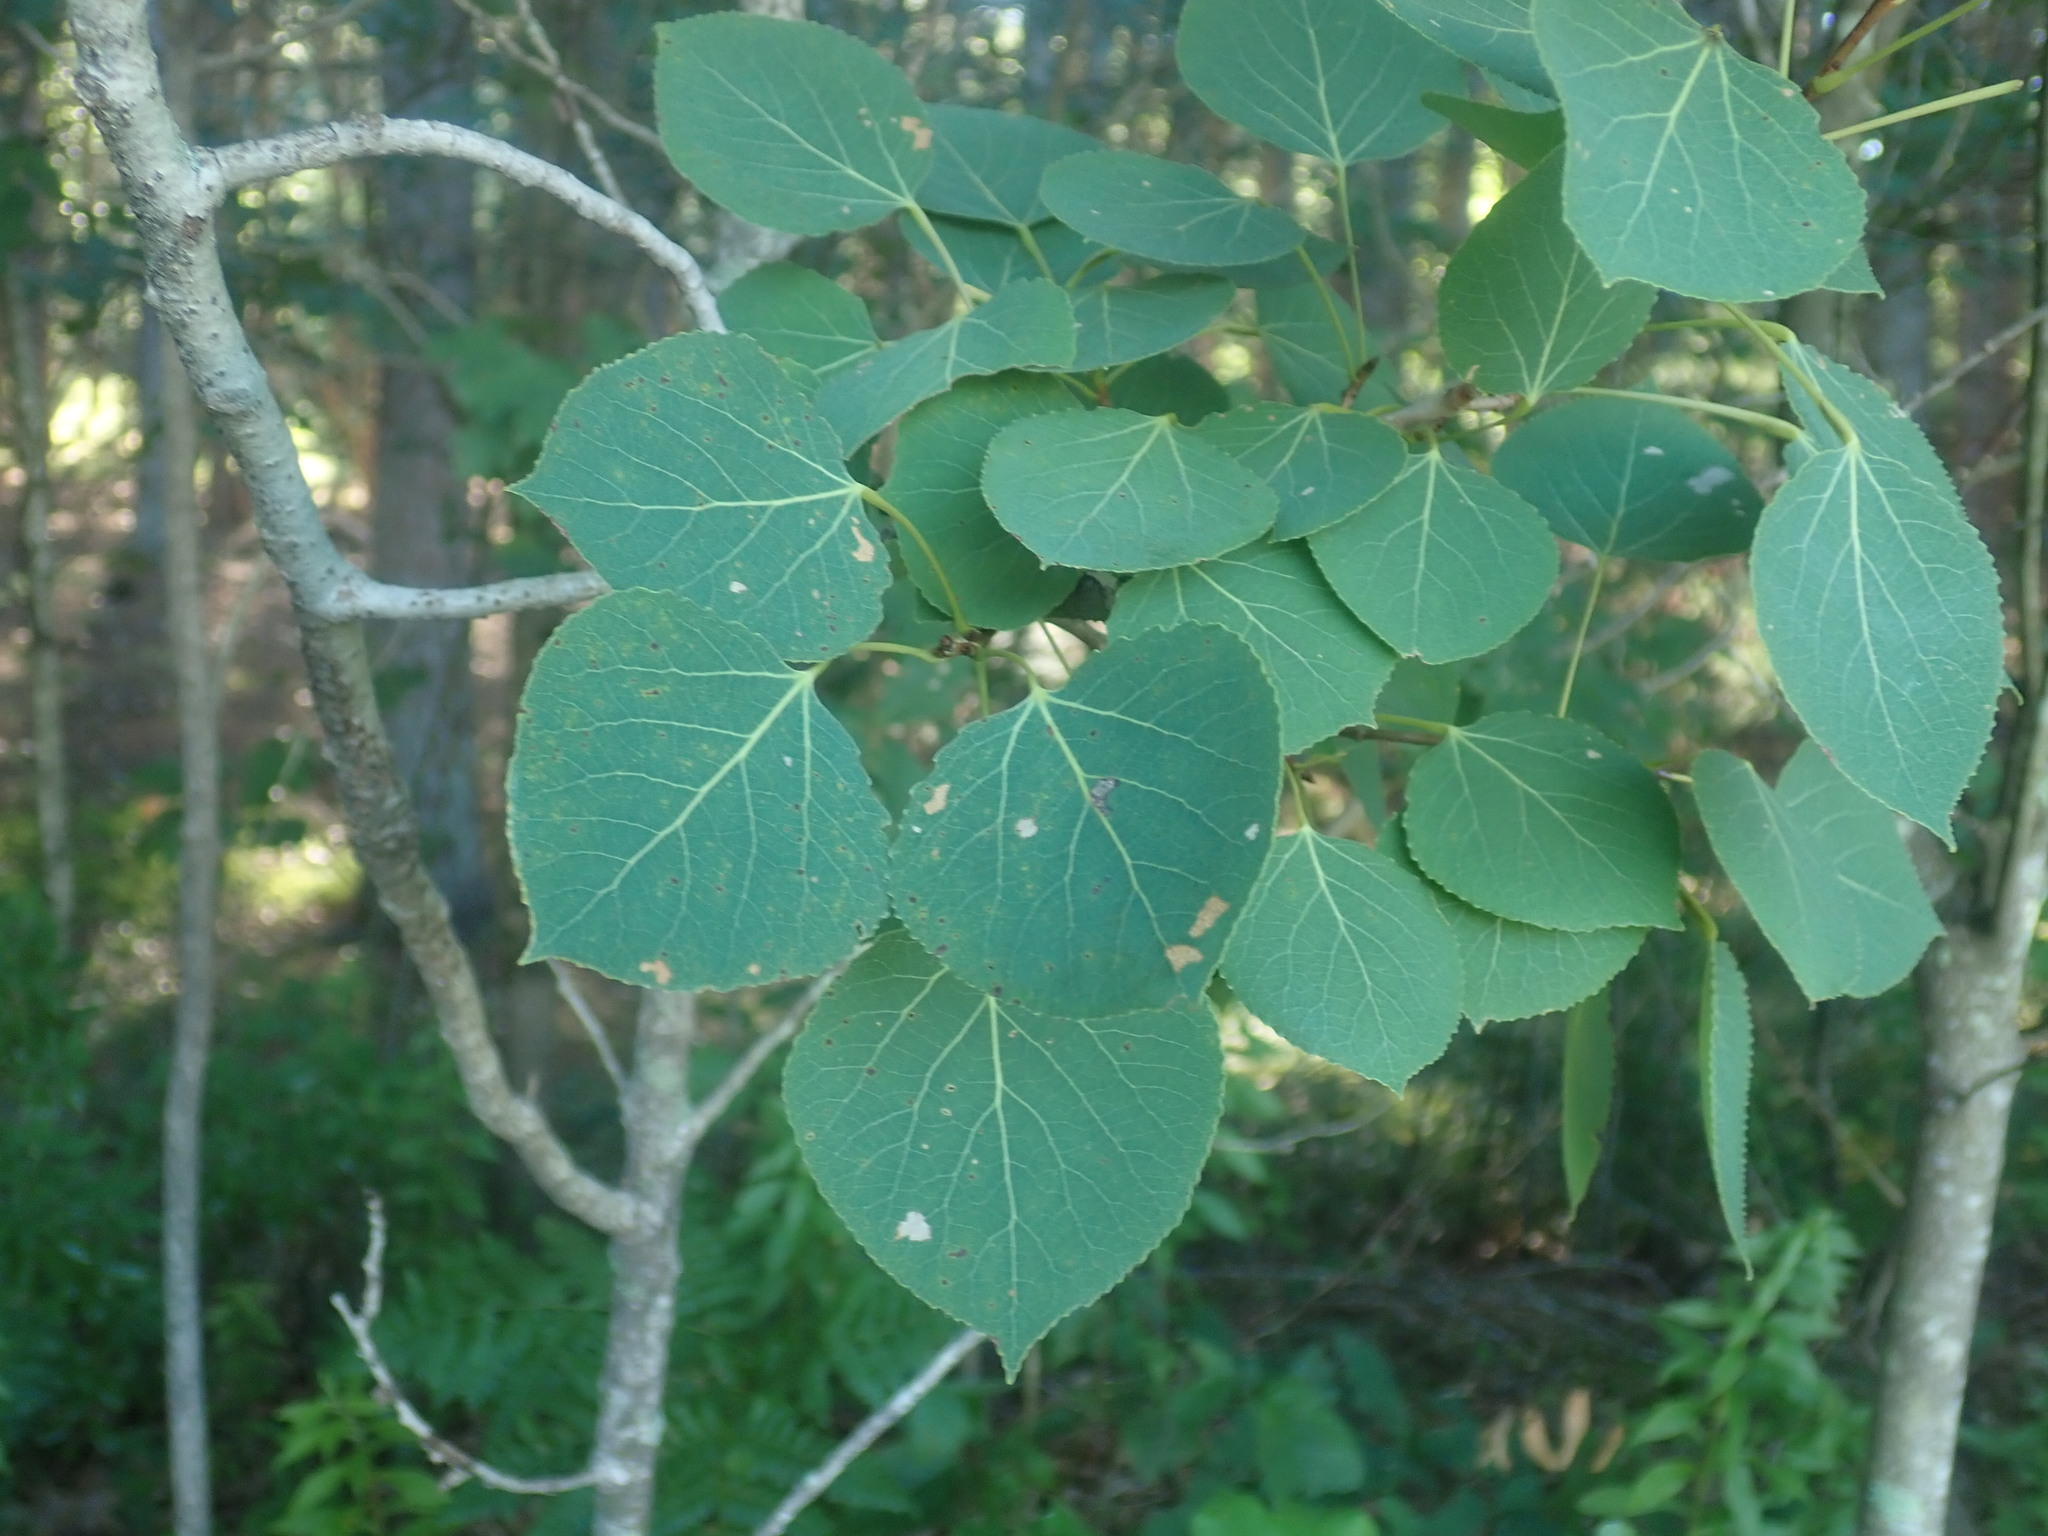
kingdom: Plantae
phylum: Tracheophyta
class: Magnoliopsida
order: Malpighiales
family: Salicaceae
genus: Populus
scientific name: Populus tremuloides
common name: Quaking aspen
